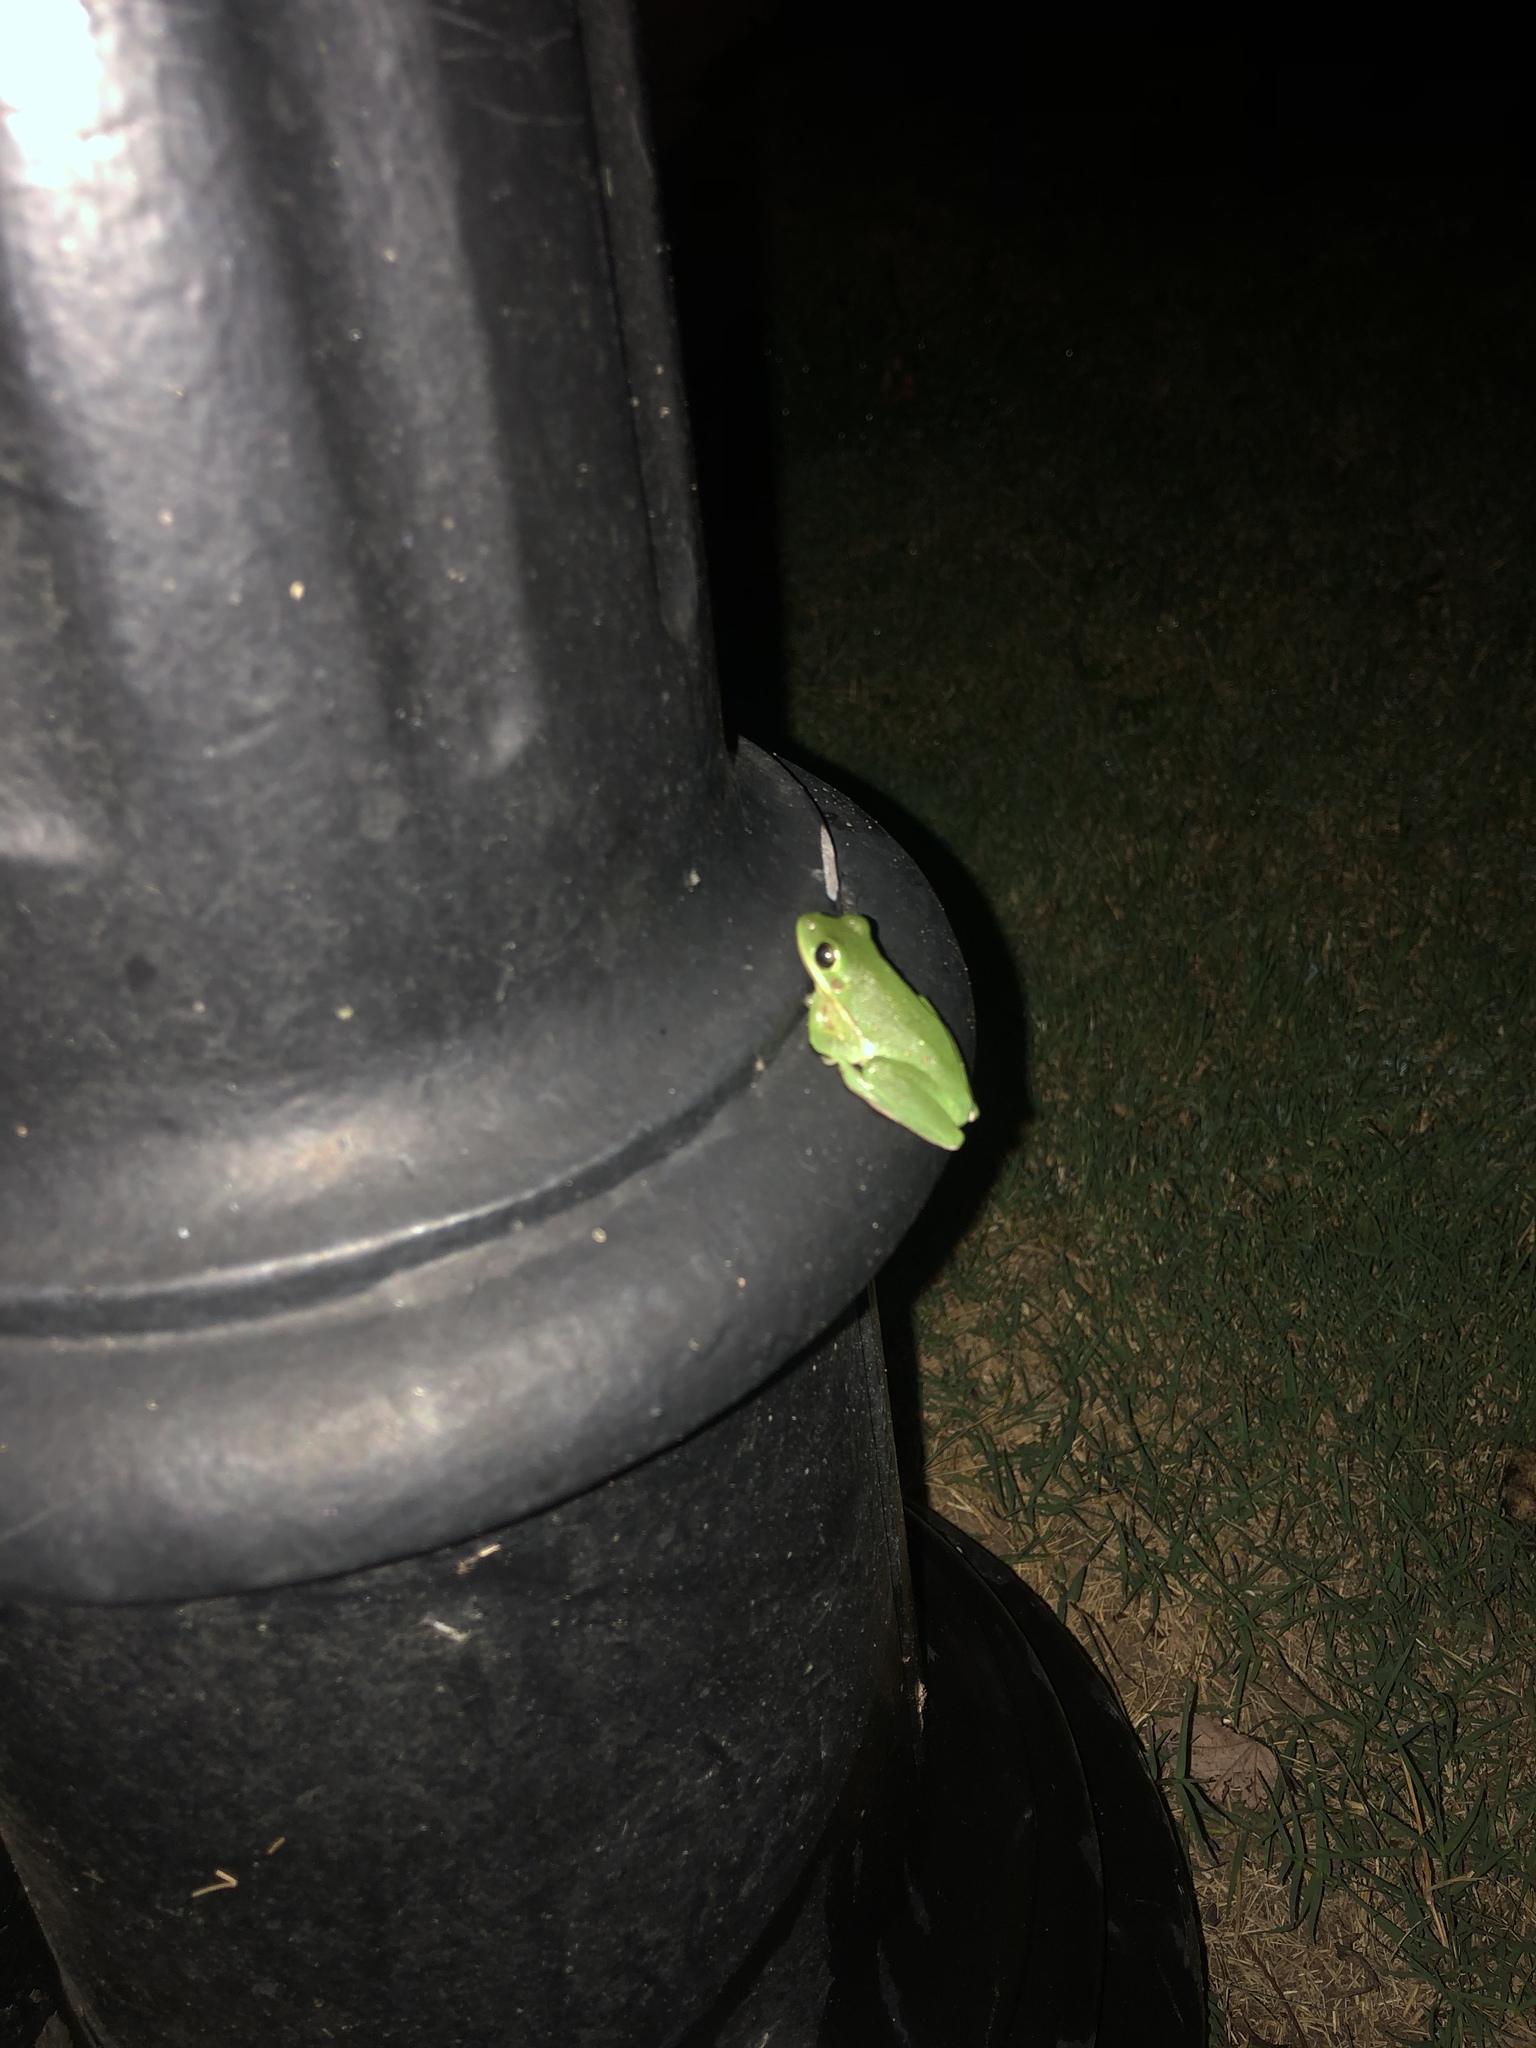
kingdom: Animalia
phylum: Chordata
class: Amphibia
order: Anura
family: Hylidae
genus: Dryophytes
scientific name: Dryophytes cinereus
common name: Green treefrog
